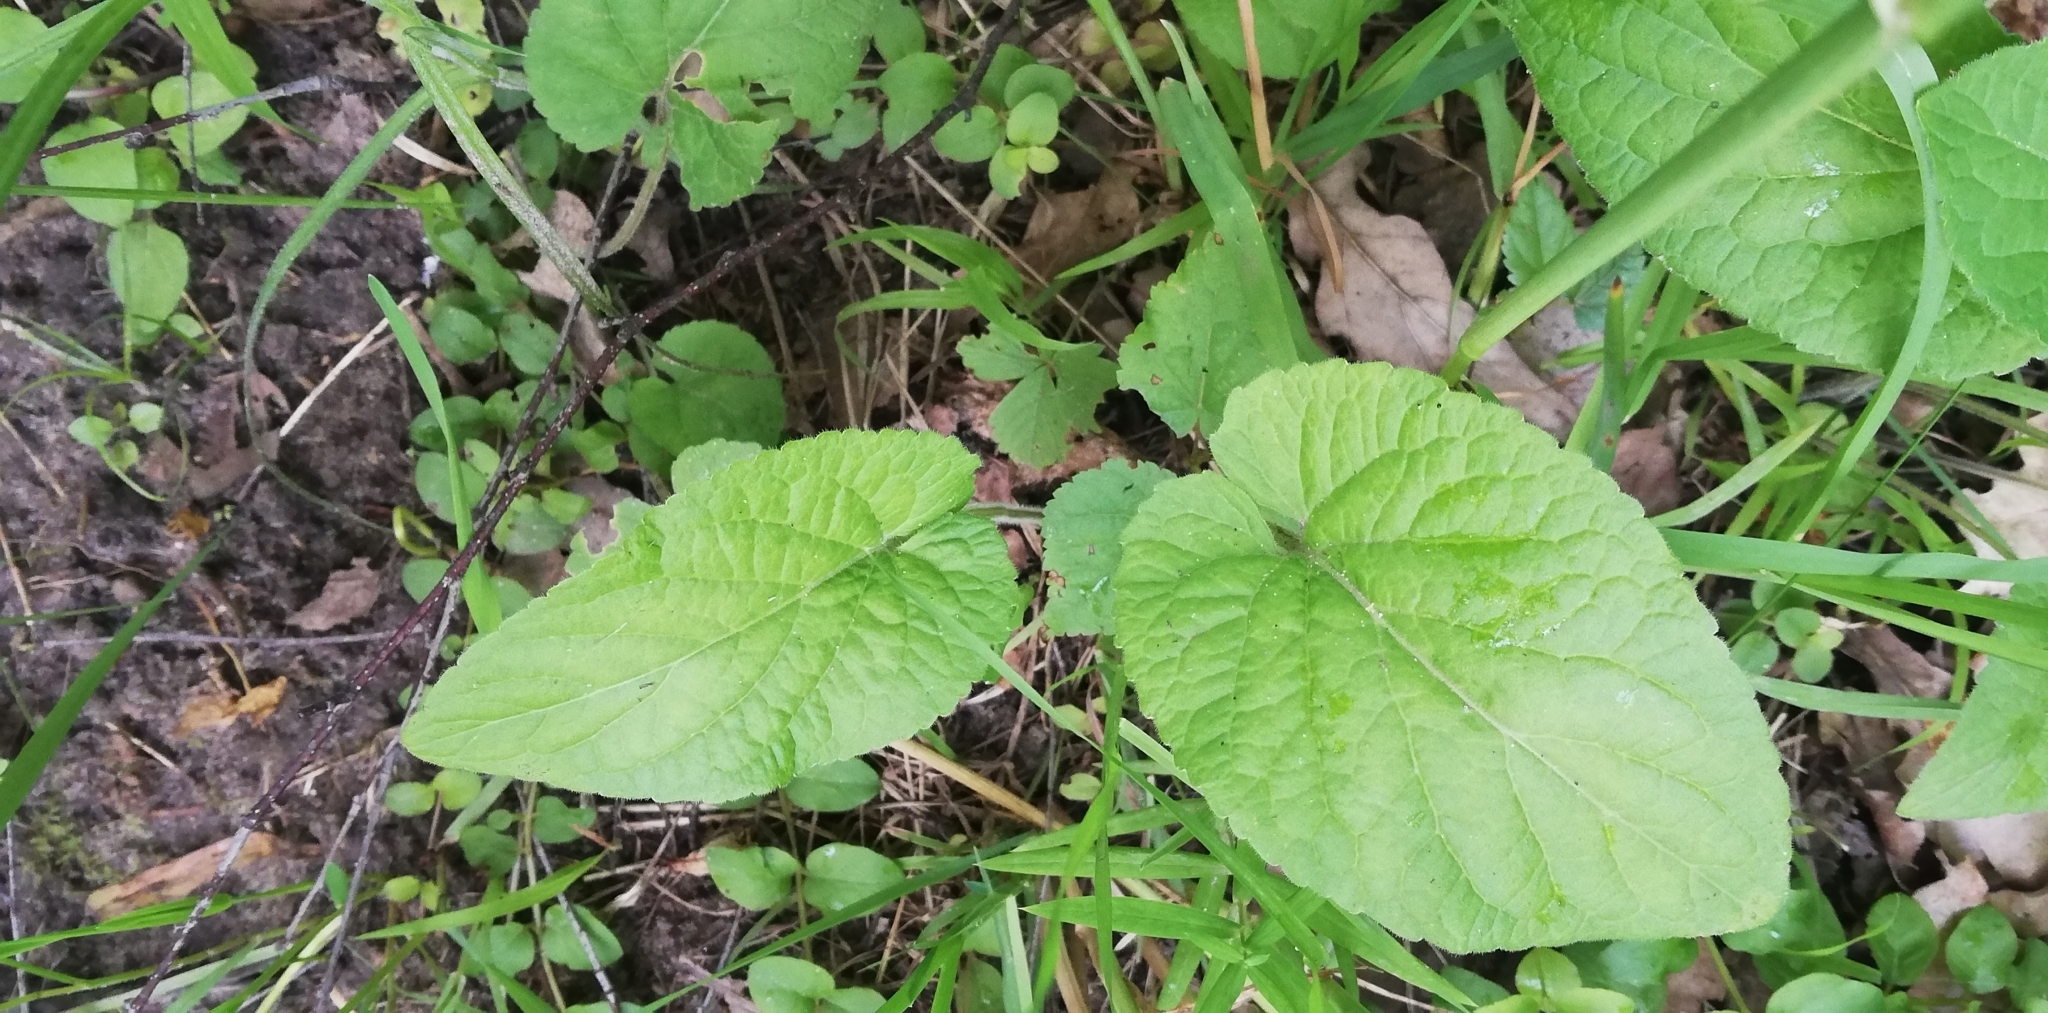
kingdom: Plantae
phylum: Tracheophyta
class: Magnoliopsida
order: Malpighiales
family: Violaceae
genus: Viola
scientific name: Viola hirta
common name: Hairy violet
